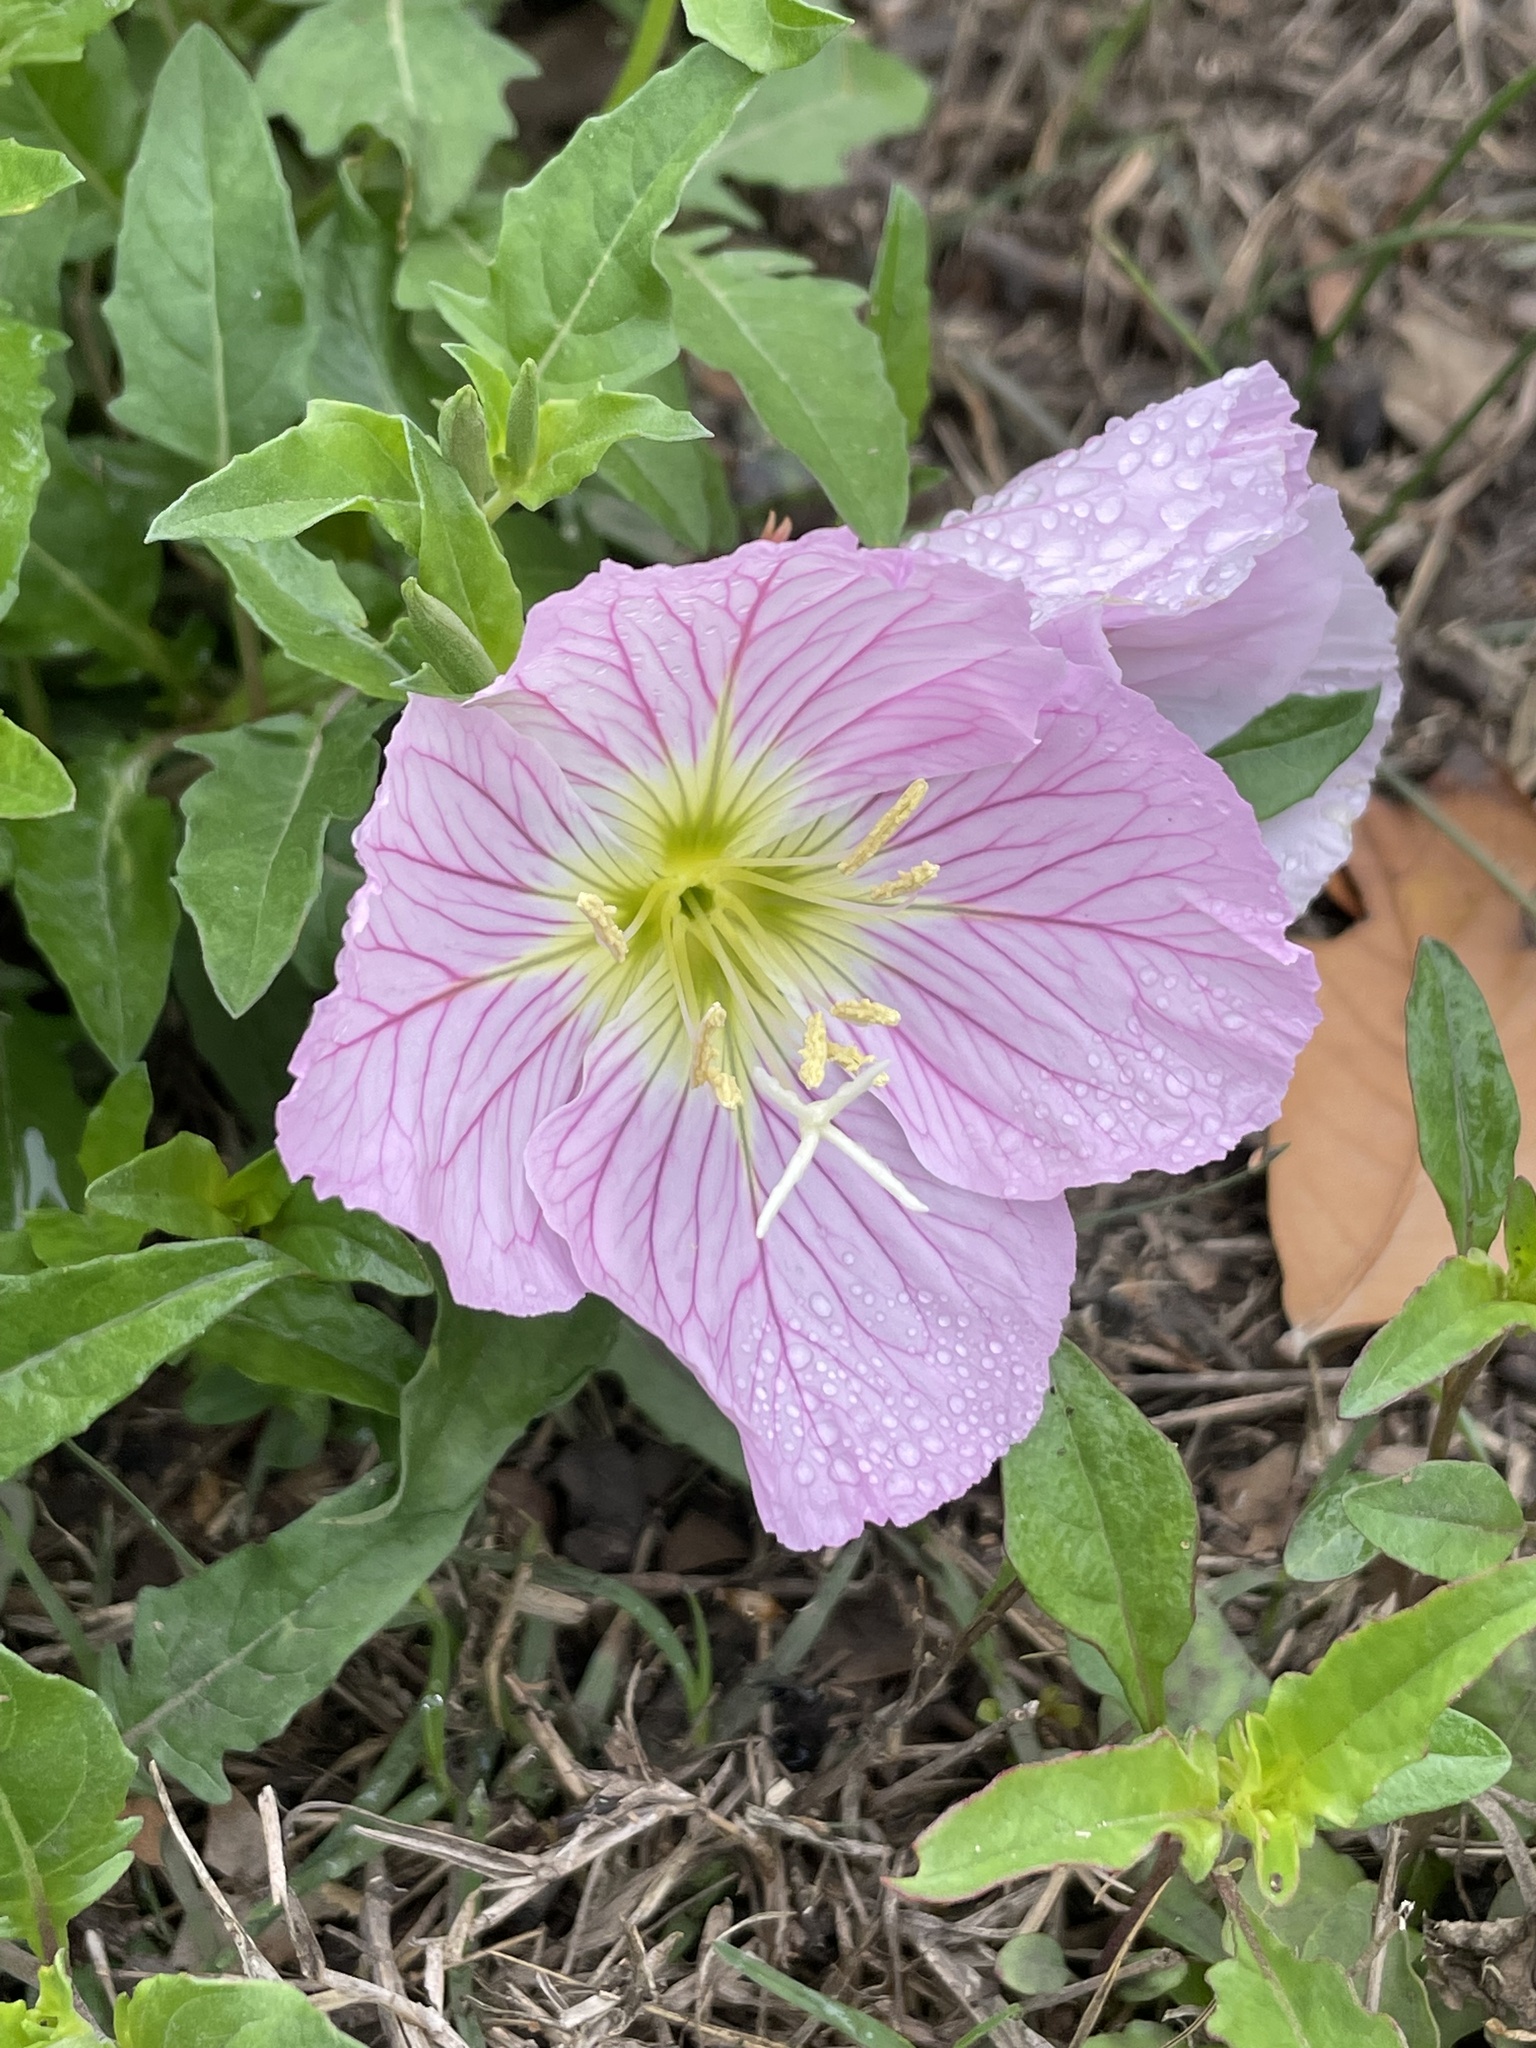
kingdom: Plantae
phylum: Tracheophyta
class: Magnoliopsida
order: Myrtales
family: Onagraceae
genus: Oenothera
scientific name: Oenothera speciosa
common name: White evening-primrose
